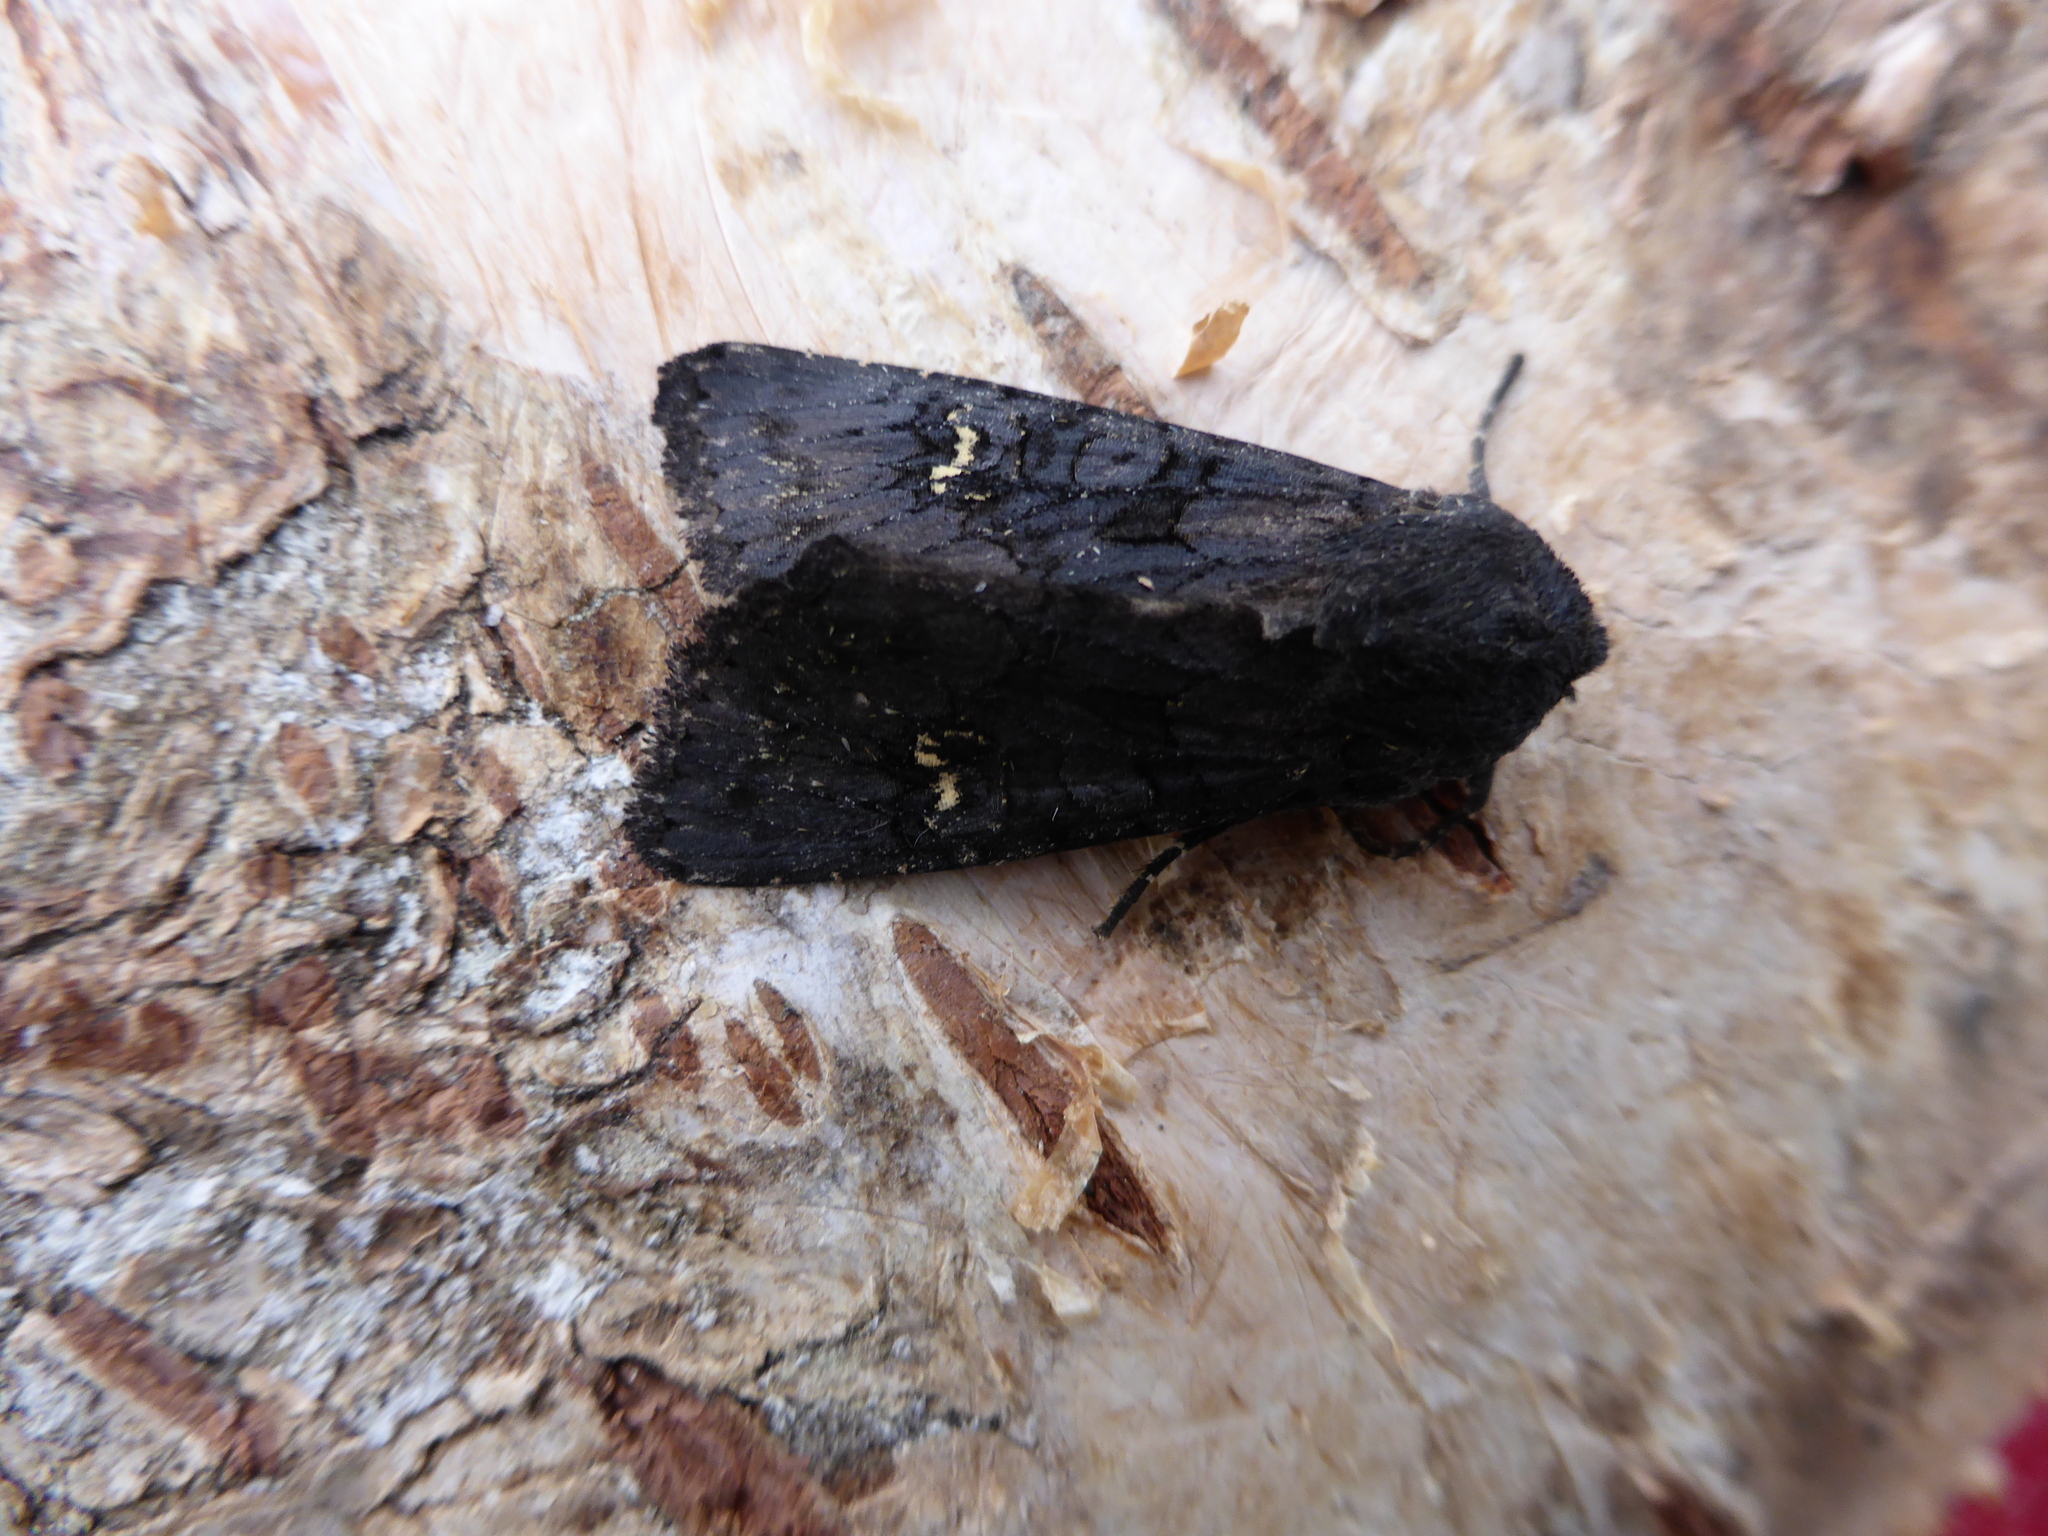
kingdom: Animalia
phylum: Arthropoda
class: Insecta
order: Lepidoptera
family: Noctuidae
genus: Aporophyla
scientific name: Aporophyla nigra
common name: Black rustic
